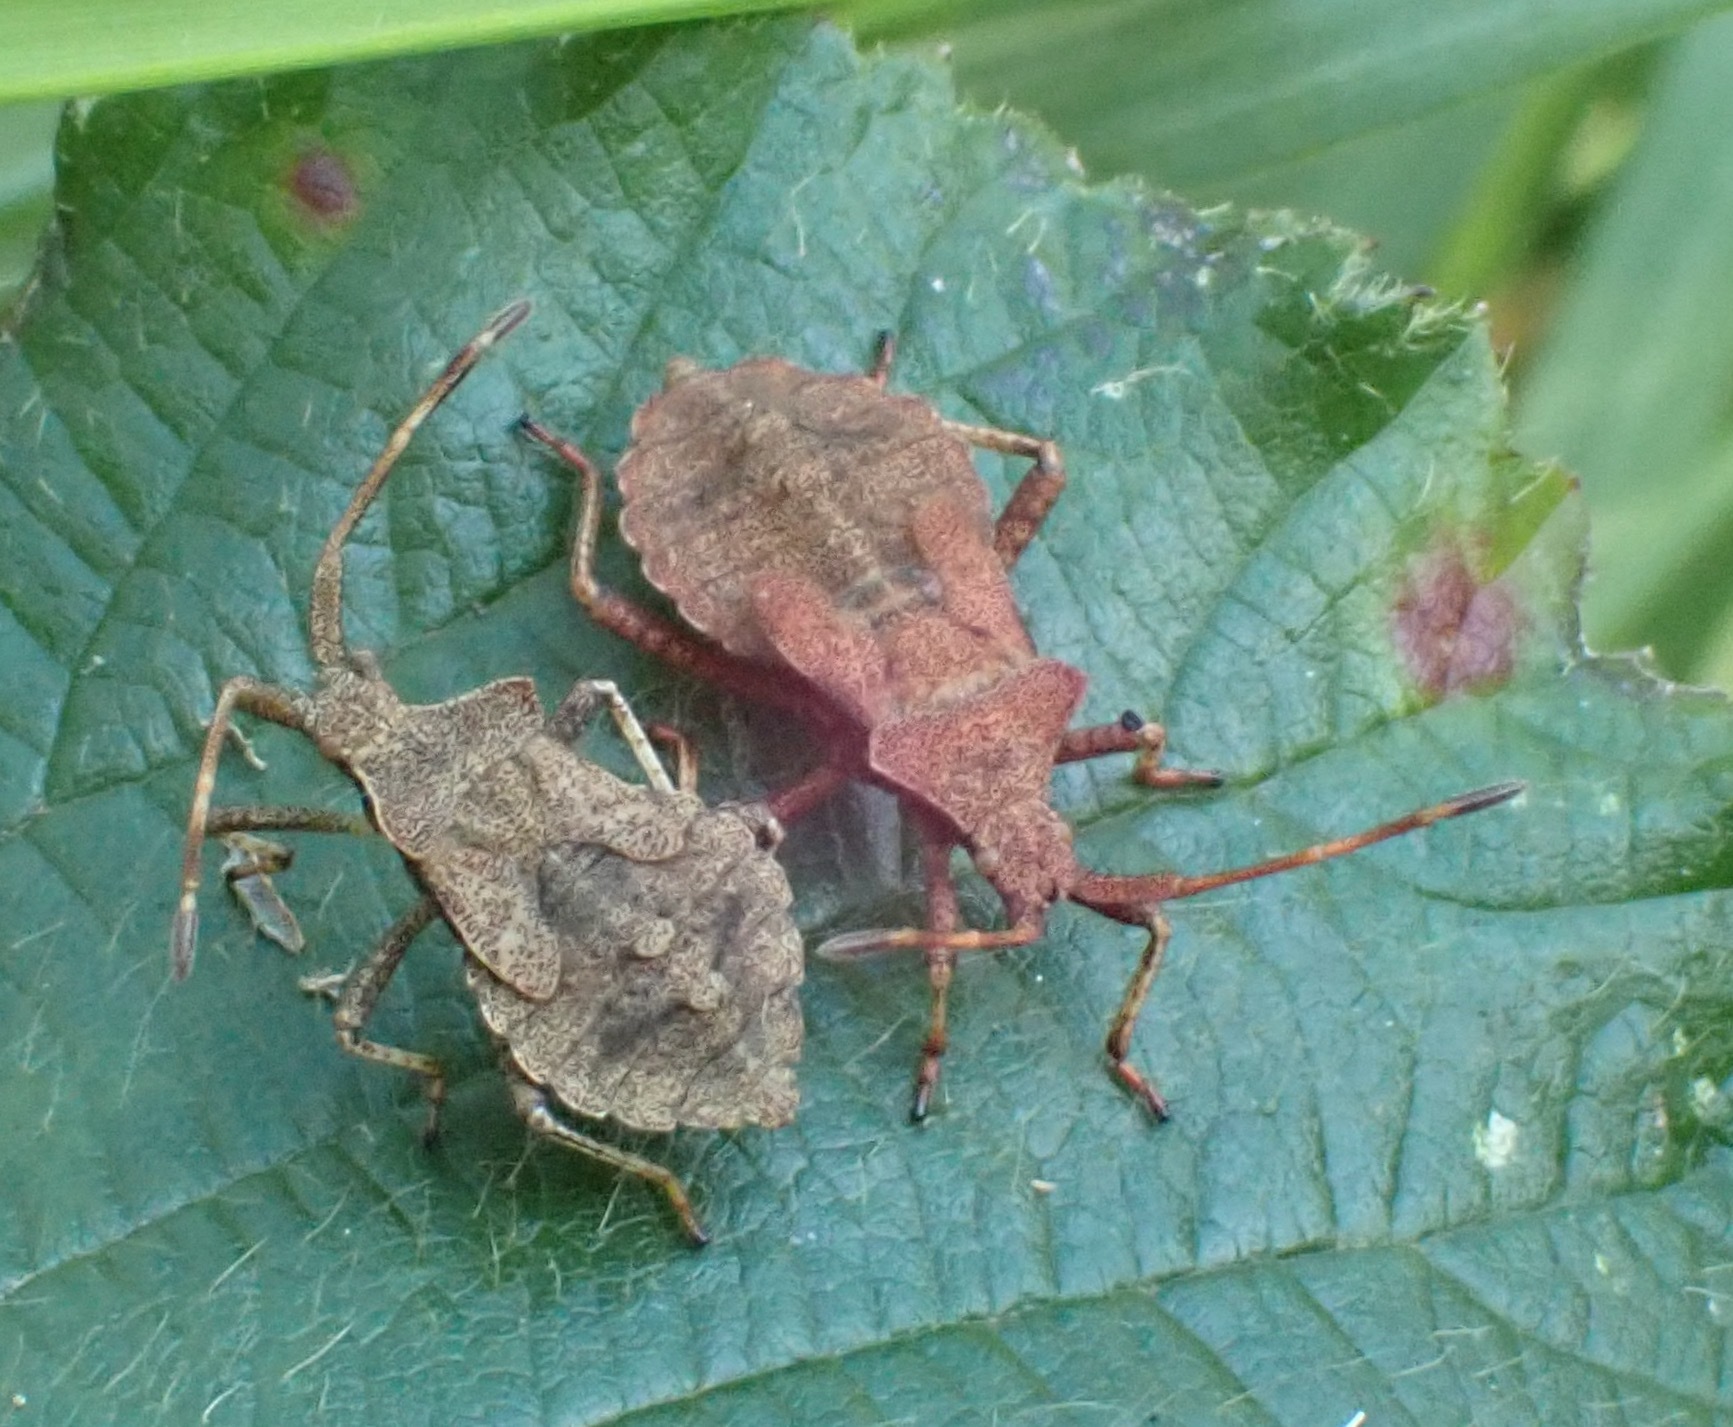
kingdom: Animalia
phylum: Arthropoda
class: Insecta
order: Hemiptera
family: Coreidae
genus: Coreus
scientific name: Coreus marginatus
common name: Dock bug
